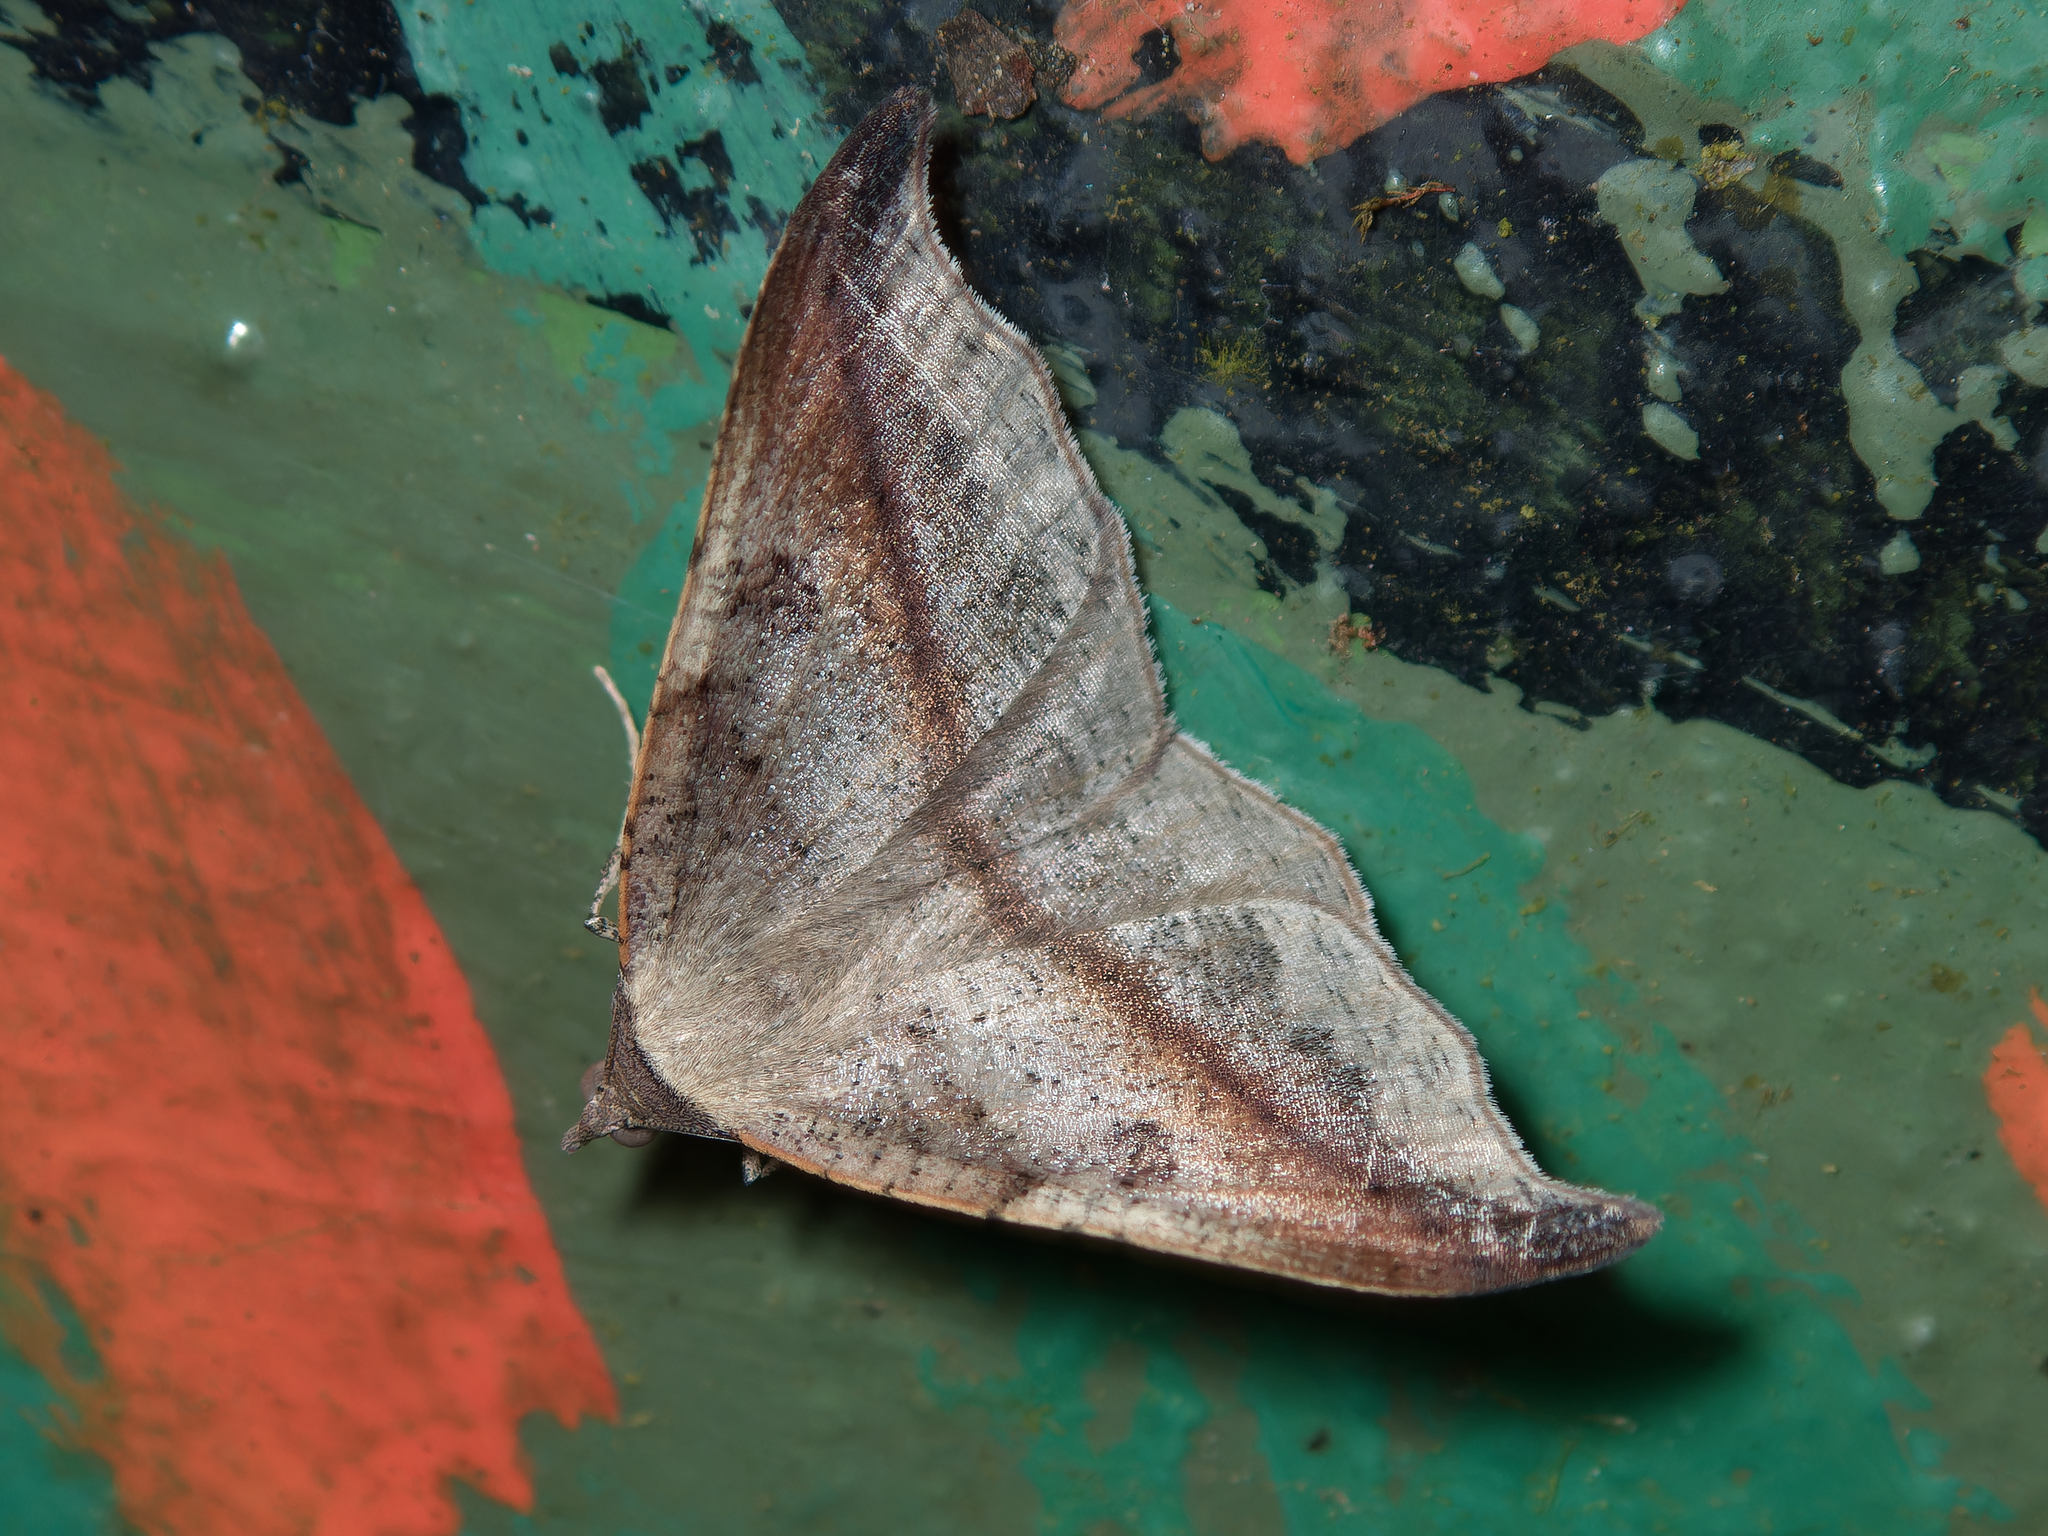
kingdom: Animalia
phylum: Arthropoda
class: Insecta
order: Lepidoptera
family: Geometridae
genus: Sarisa
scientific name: Sarisa muriferata
